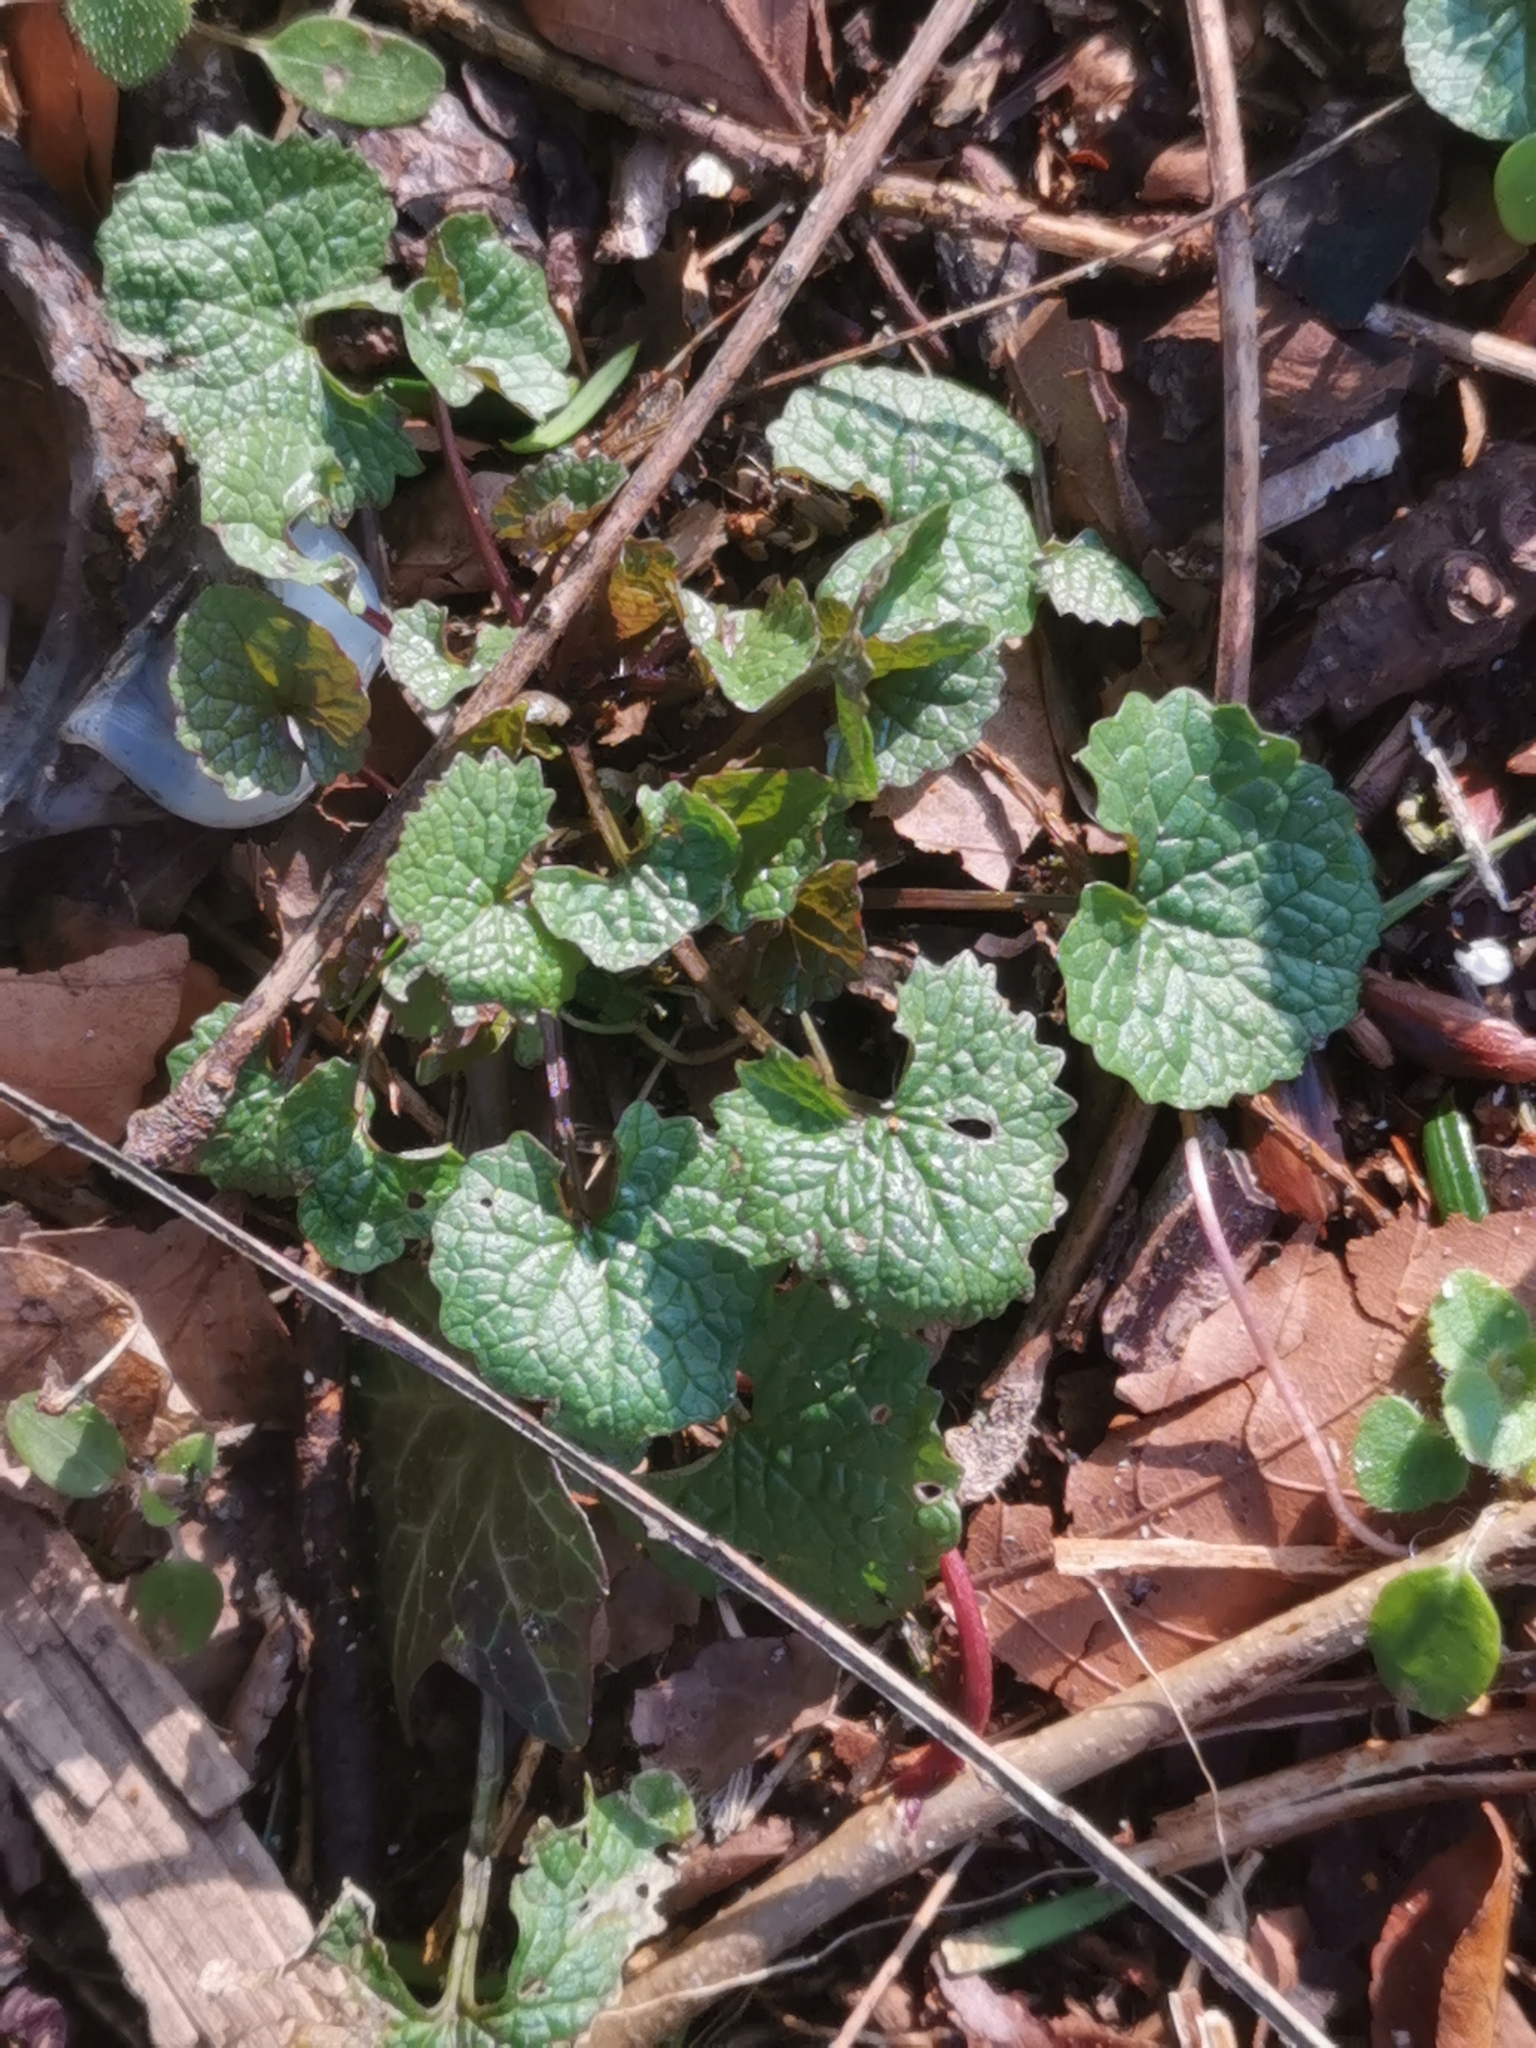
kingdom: Plantae
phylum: Tracheophyta
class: Magnoliopsida
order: Brassicales
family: Brassicaceae
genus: Alliaria
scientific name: Alliaria petiolata
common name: Garlic mustard
